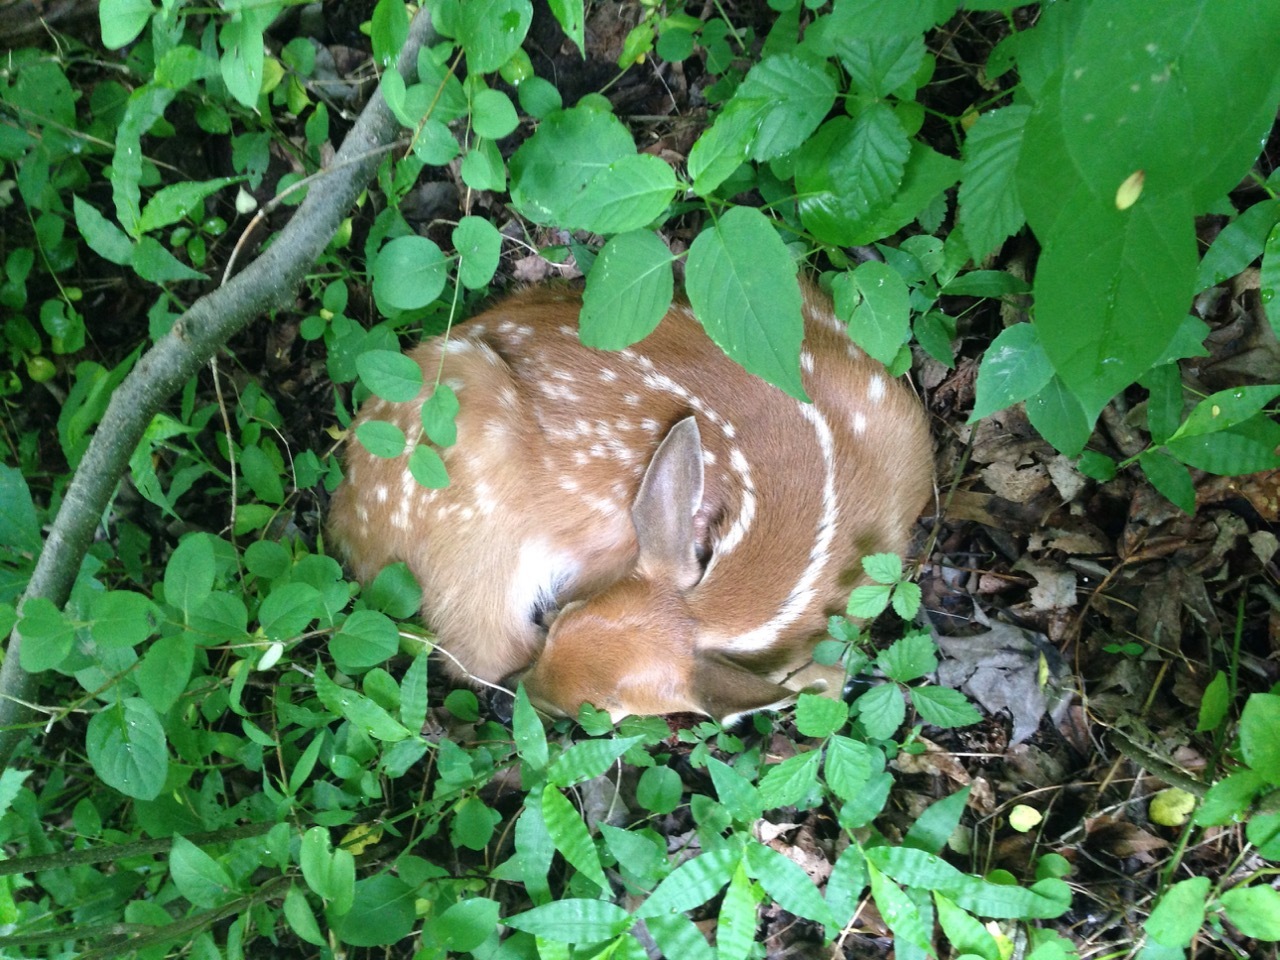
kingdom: Animalia
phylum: Chordata
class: Mammalia
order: Artiodactyla
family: Cervidae
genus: Odocoileus
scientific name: Odocoileus virginianus
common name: White-tailed deer
